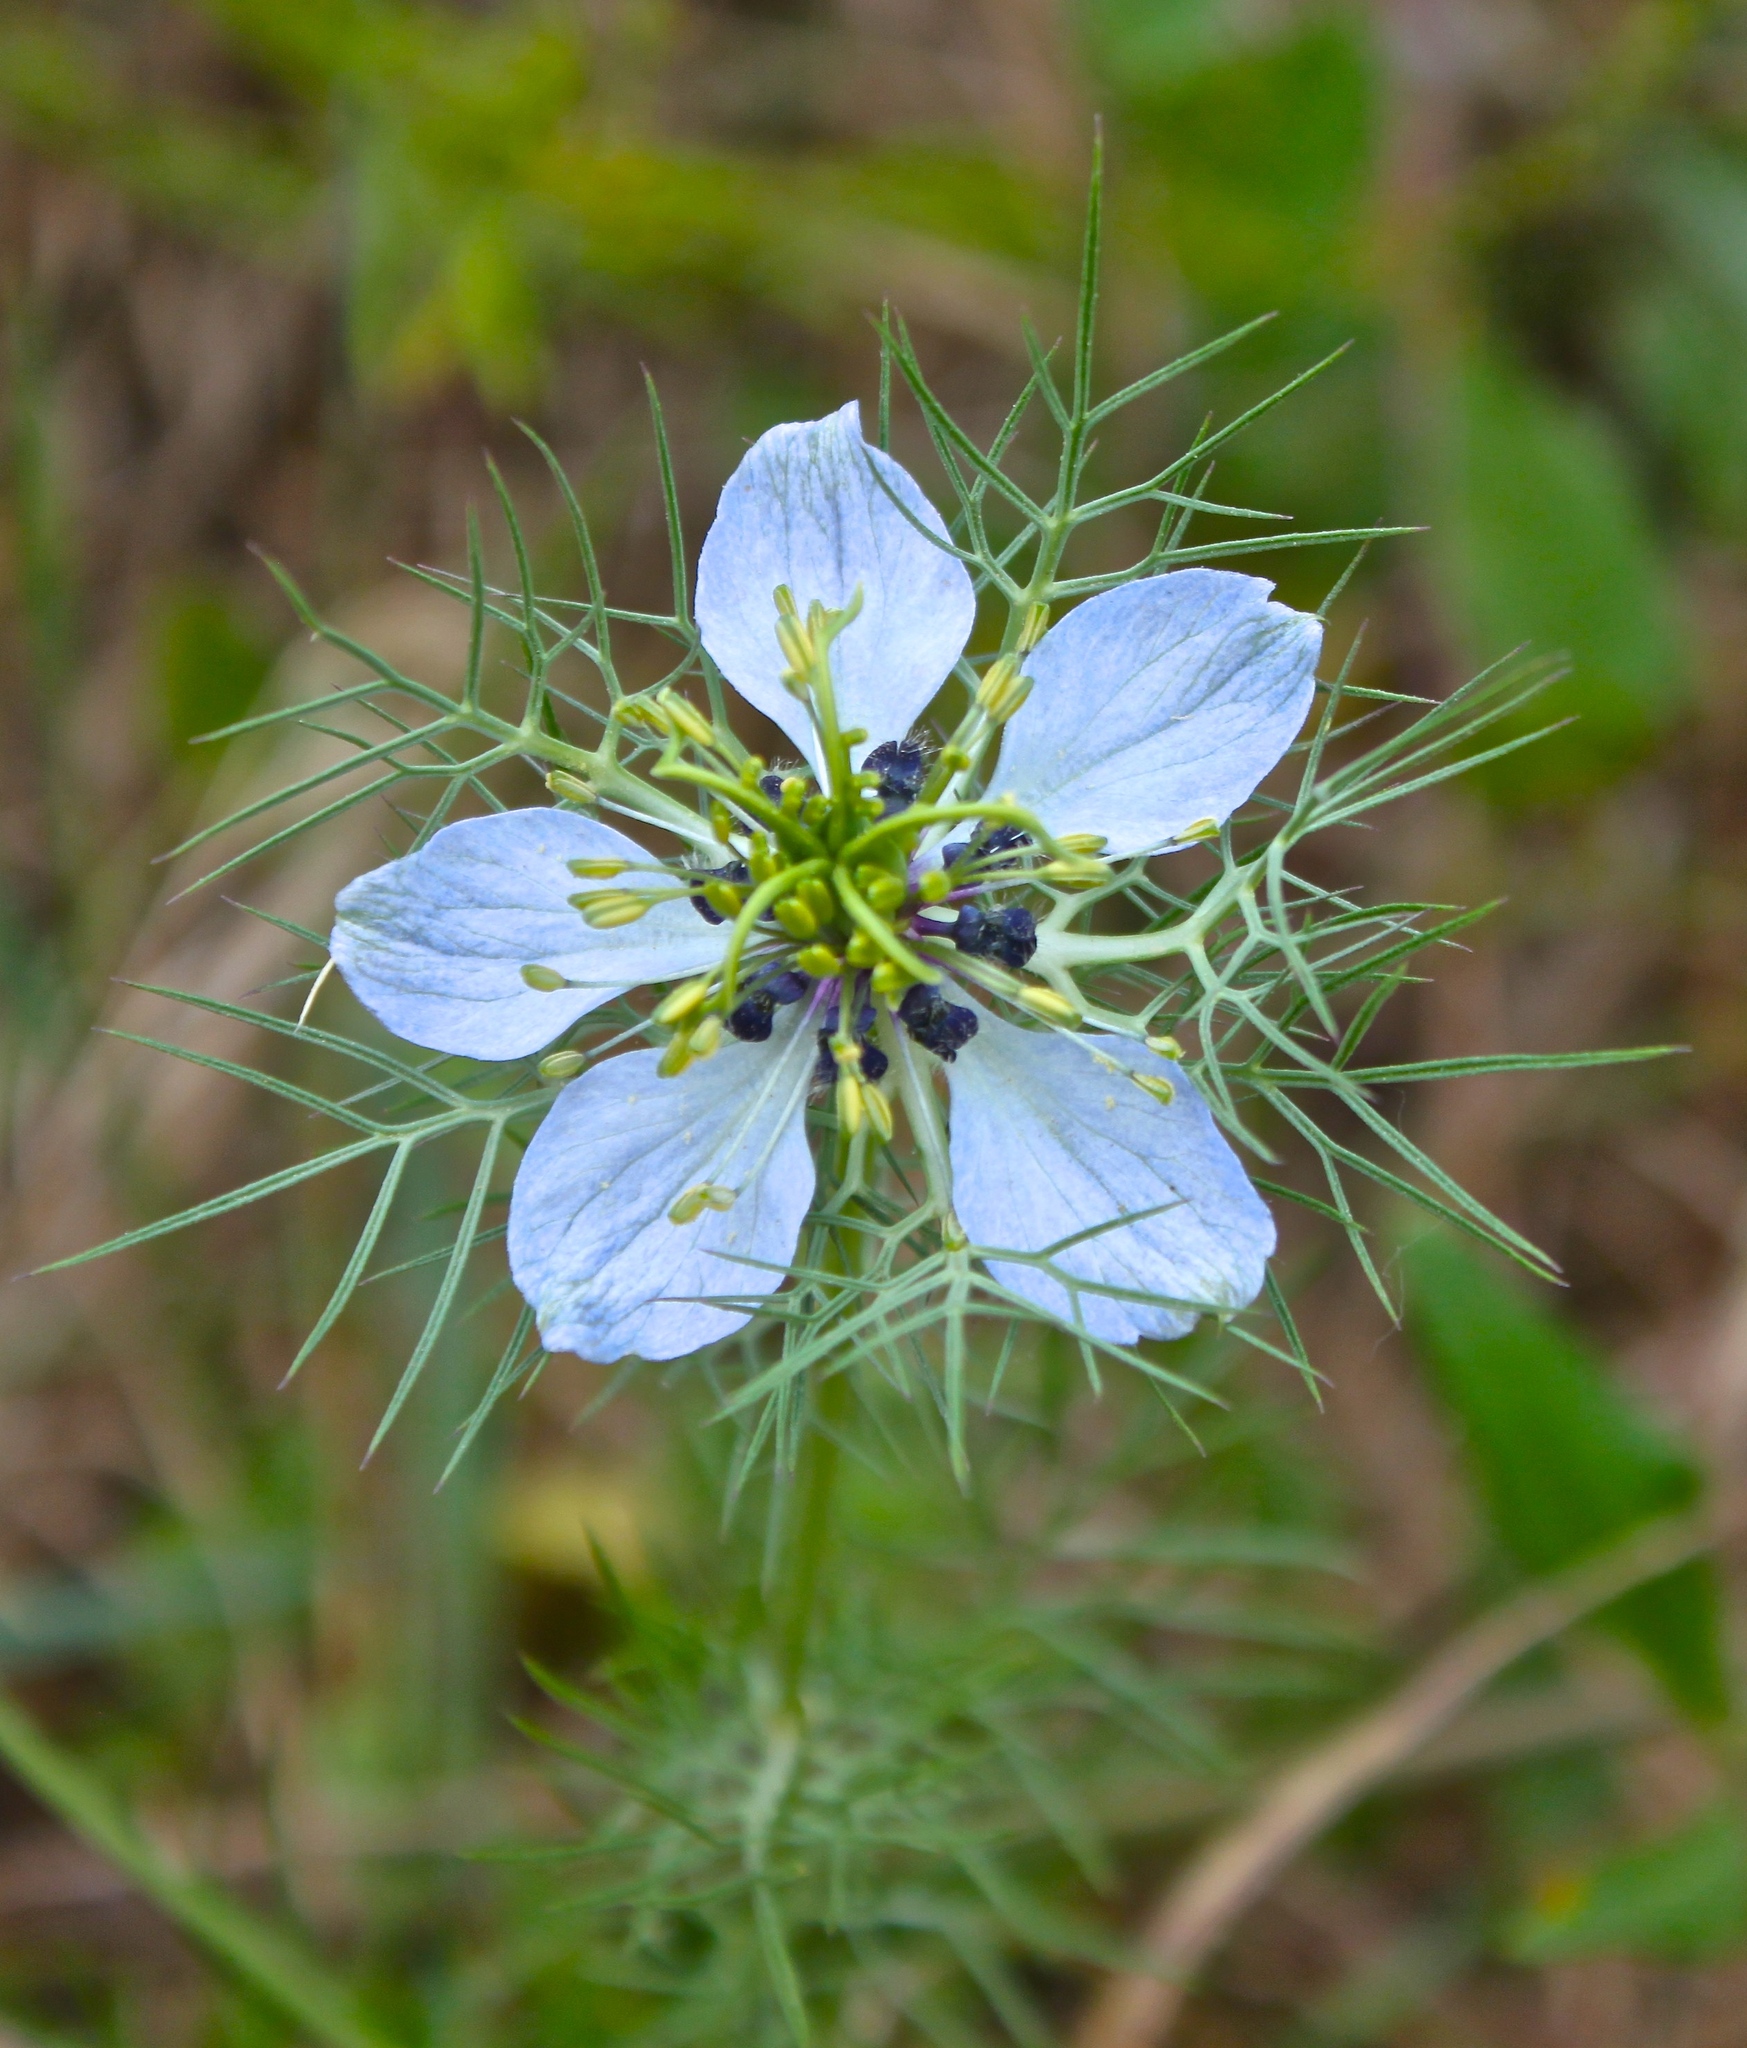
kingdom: Plantae
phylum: Tracheophyta
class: Magnoliopsida
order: Ranunculales
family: Ranunculaceae
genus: Nigella
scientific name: Nigella damascena
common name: Love-in-a-mist
